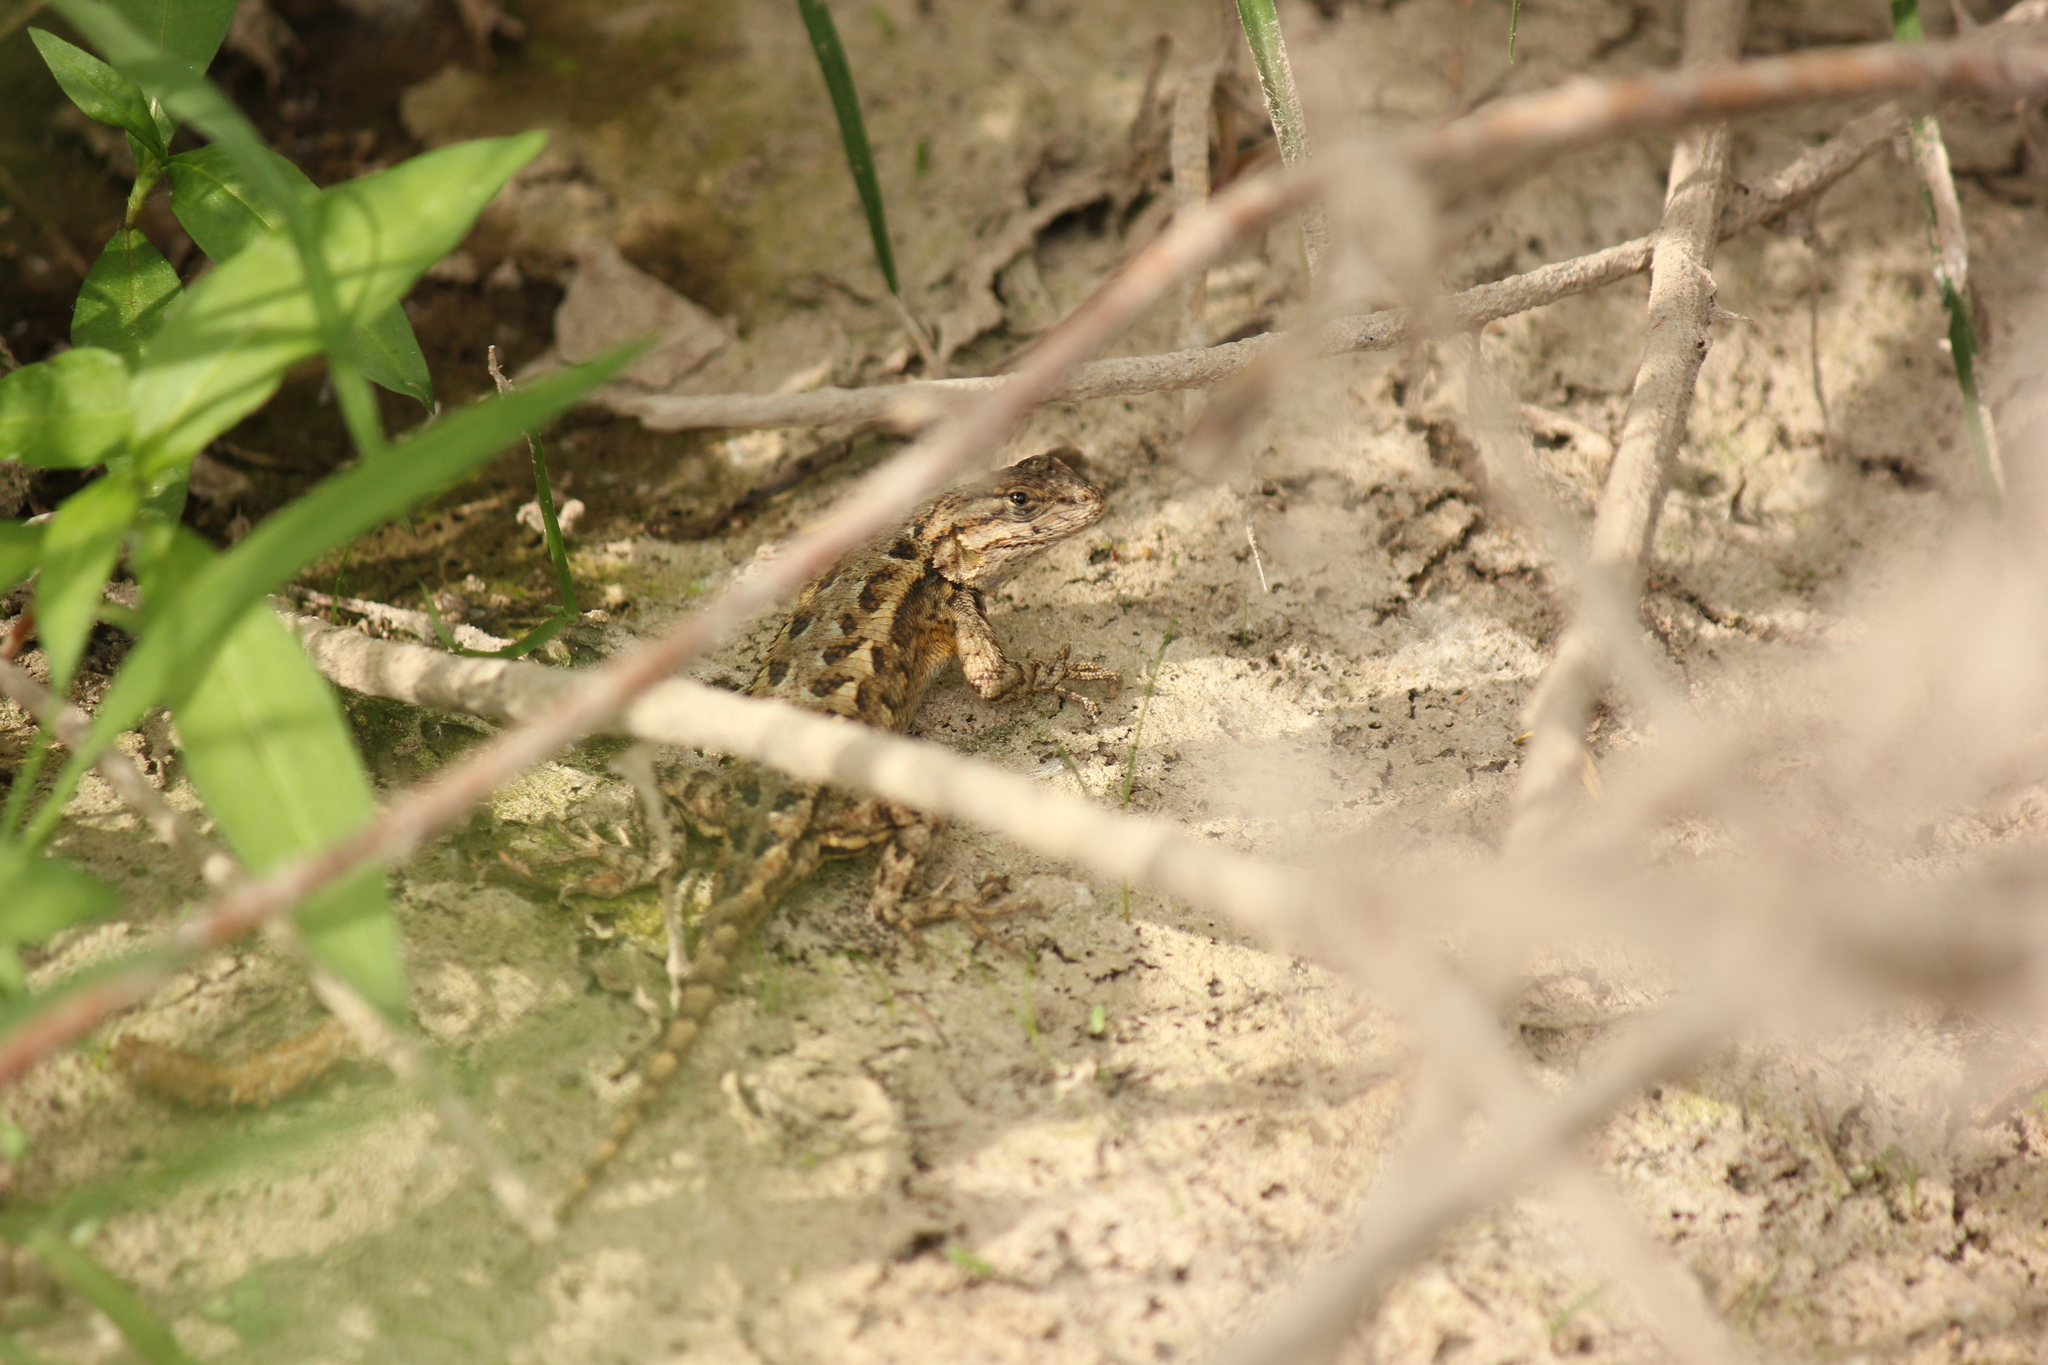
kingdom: Animalia
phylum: Chordata
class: Squamata
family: Phrynosomatidae
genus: Sceloporus
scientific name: Sceloporus occidentalis
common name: Western fence lizard
